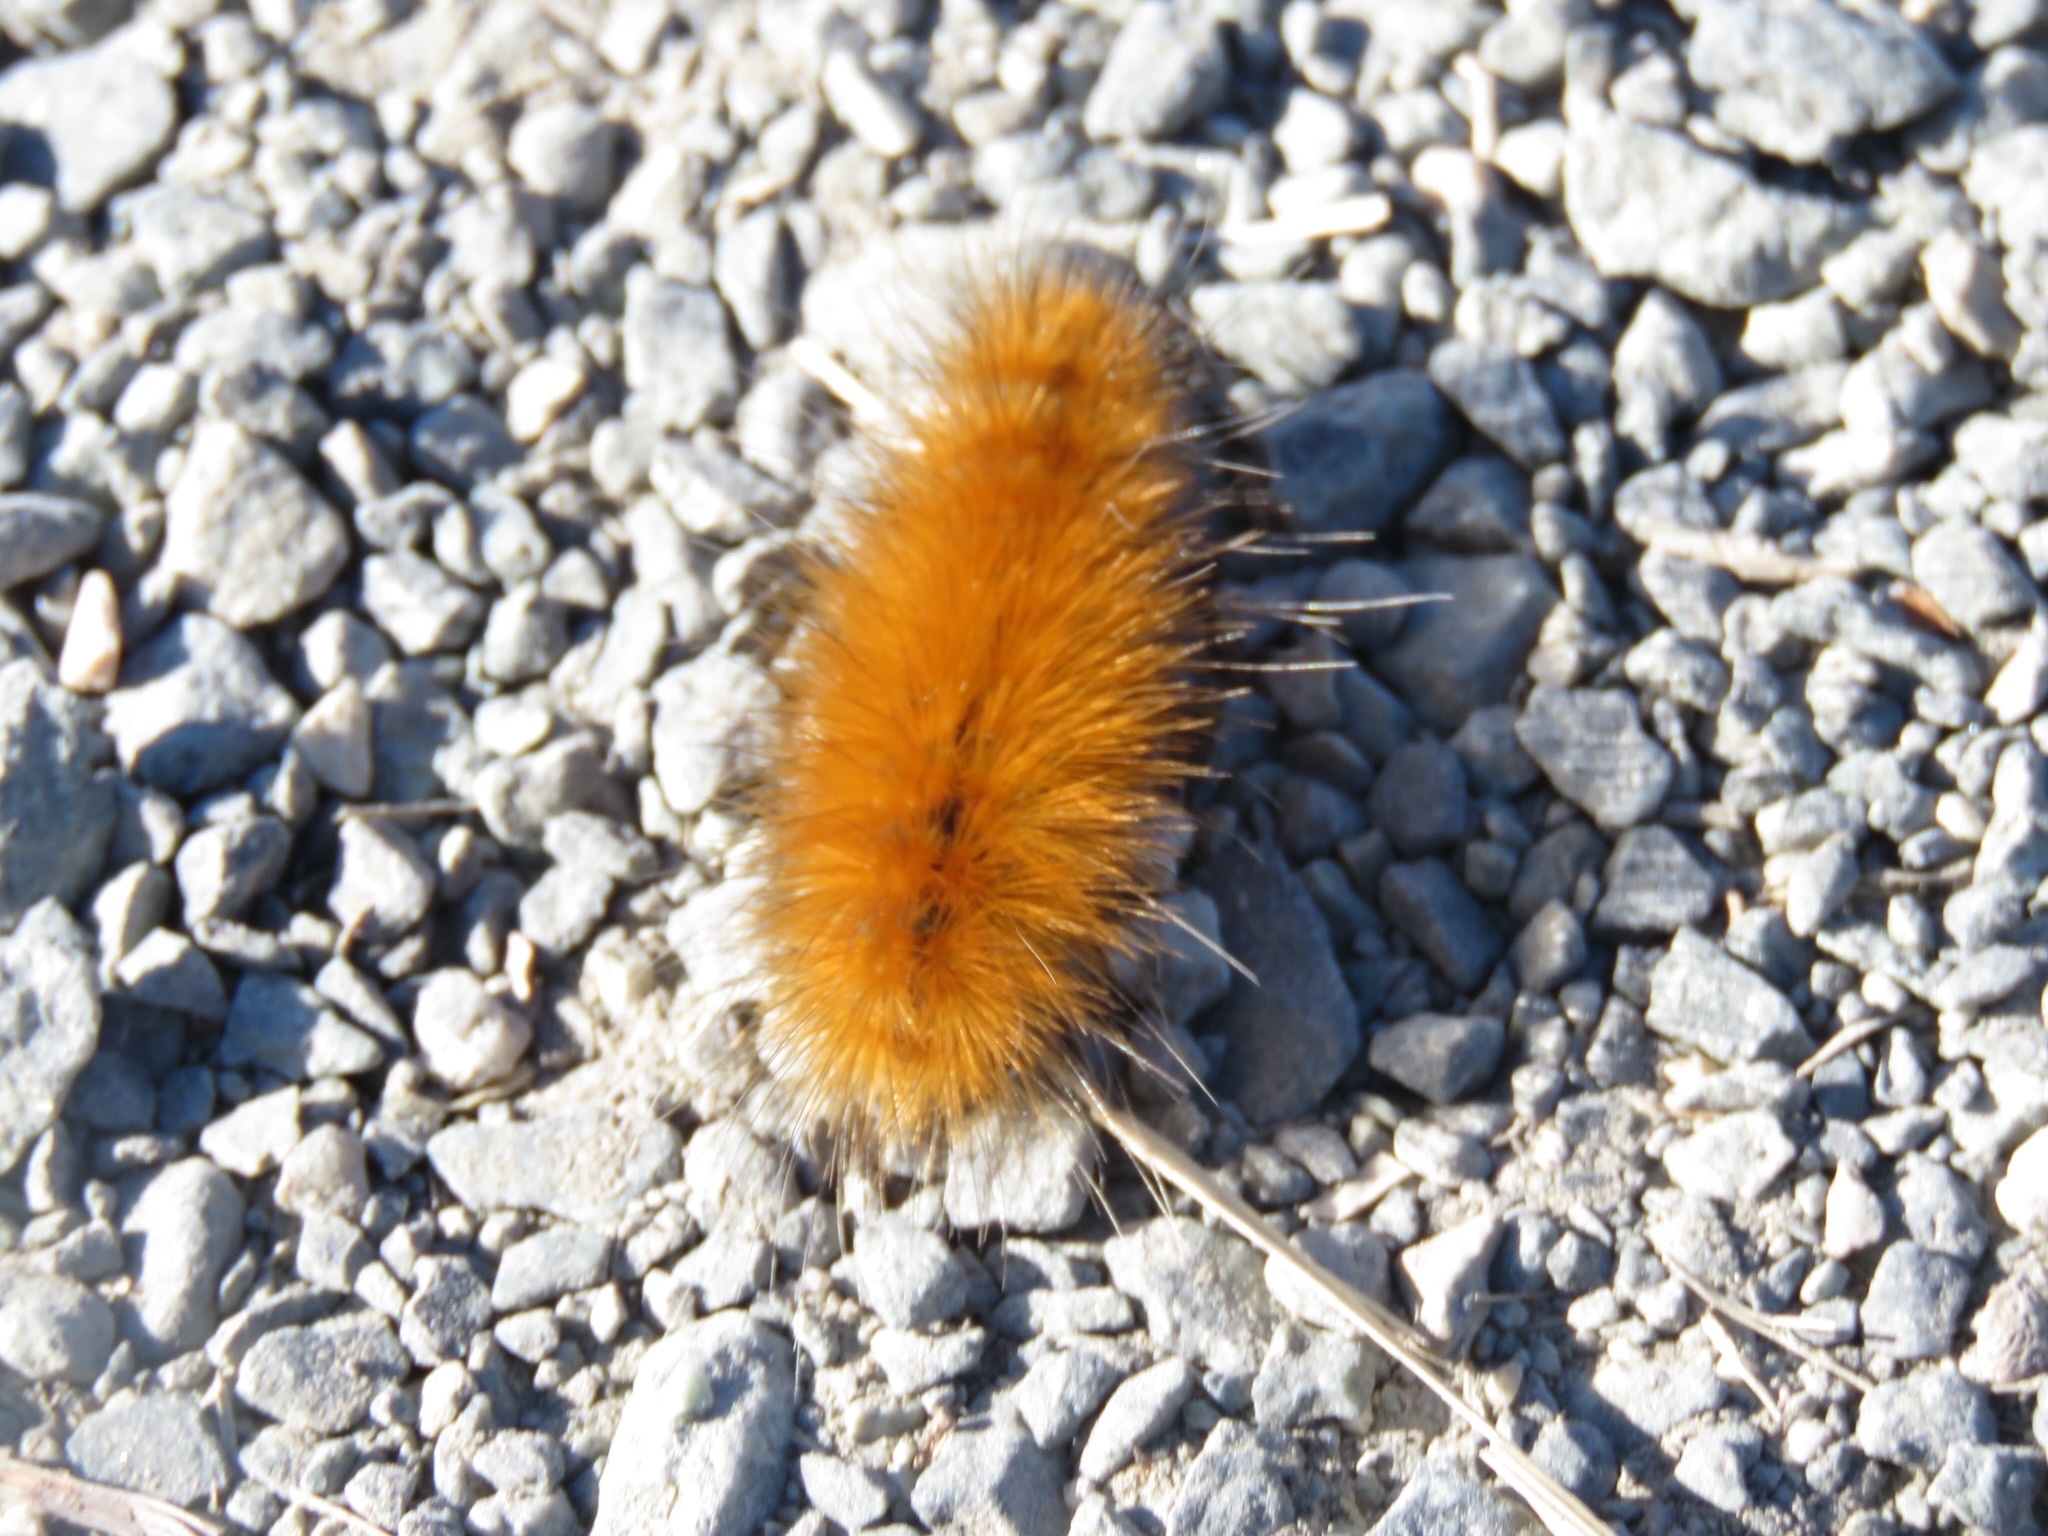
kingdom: Animalia
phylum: Arthropoda
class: Insecta
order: Lepidoptera
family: Erebidae
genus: Spilosoma
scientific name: Spilosoma virginica
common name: Virginia tiger moth
